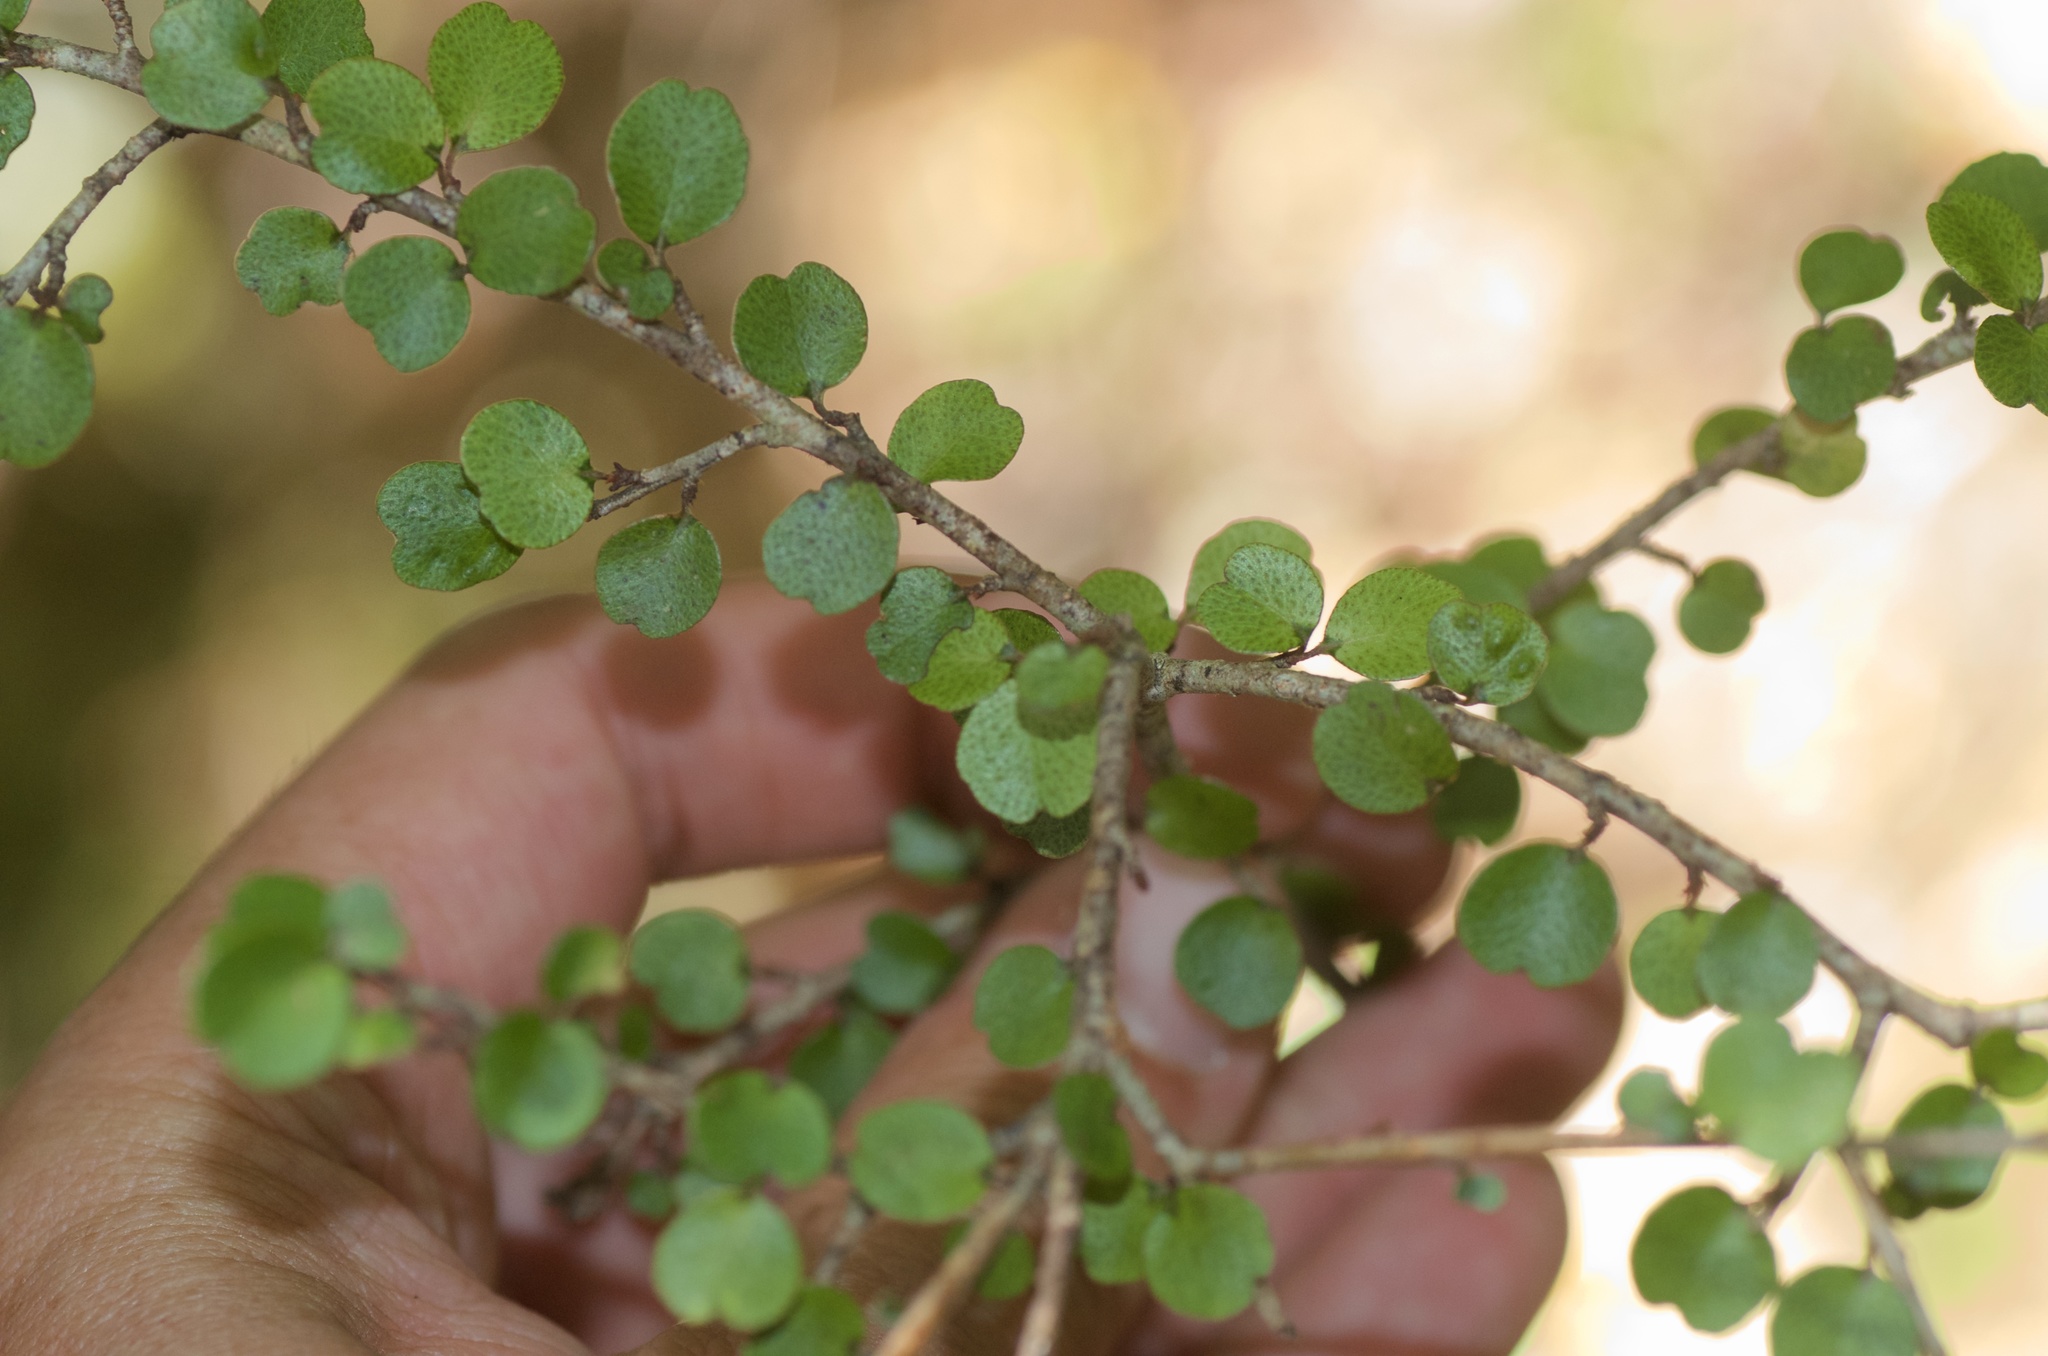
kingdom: Plantae
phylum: Tracheophyta
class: Magnoliopsida
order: Ericales
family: Primulaceae
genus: Myrsine
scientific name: Myrsine divaricata
